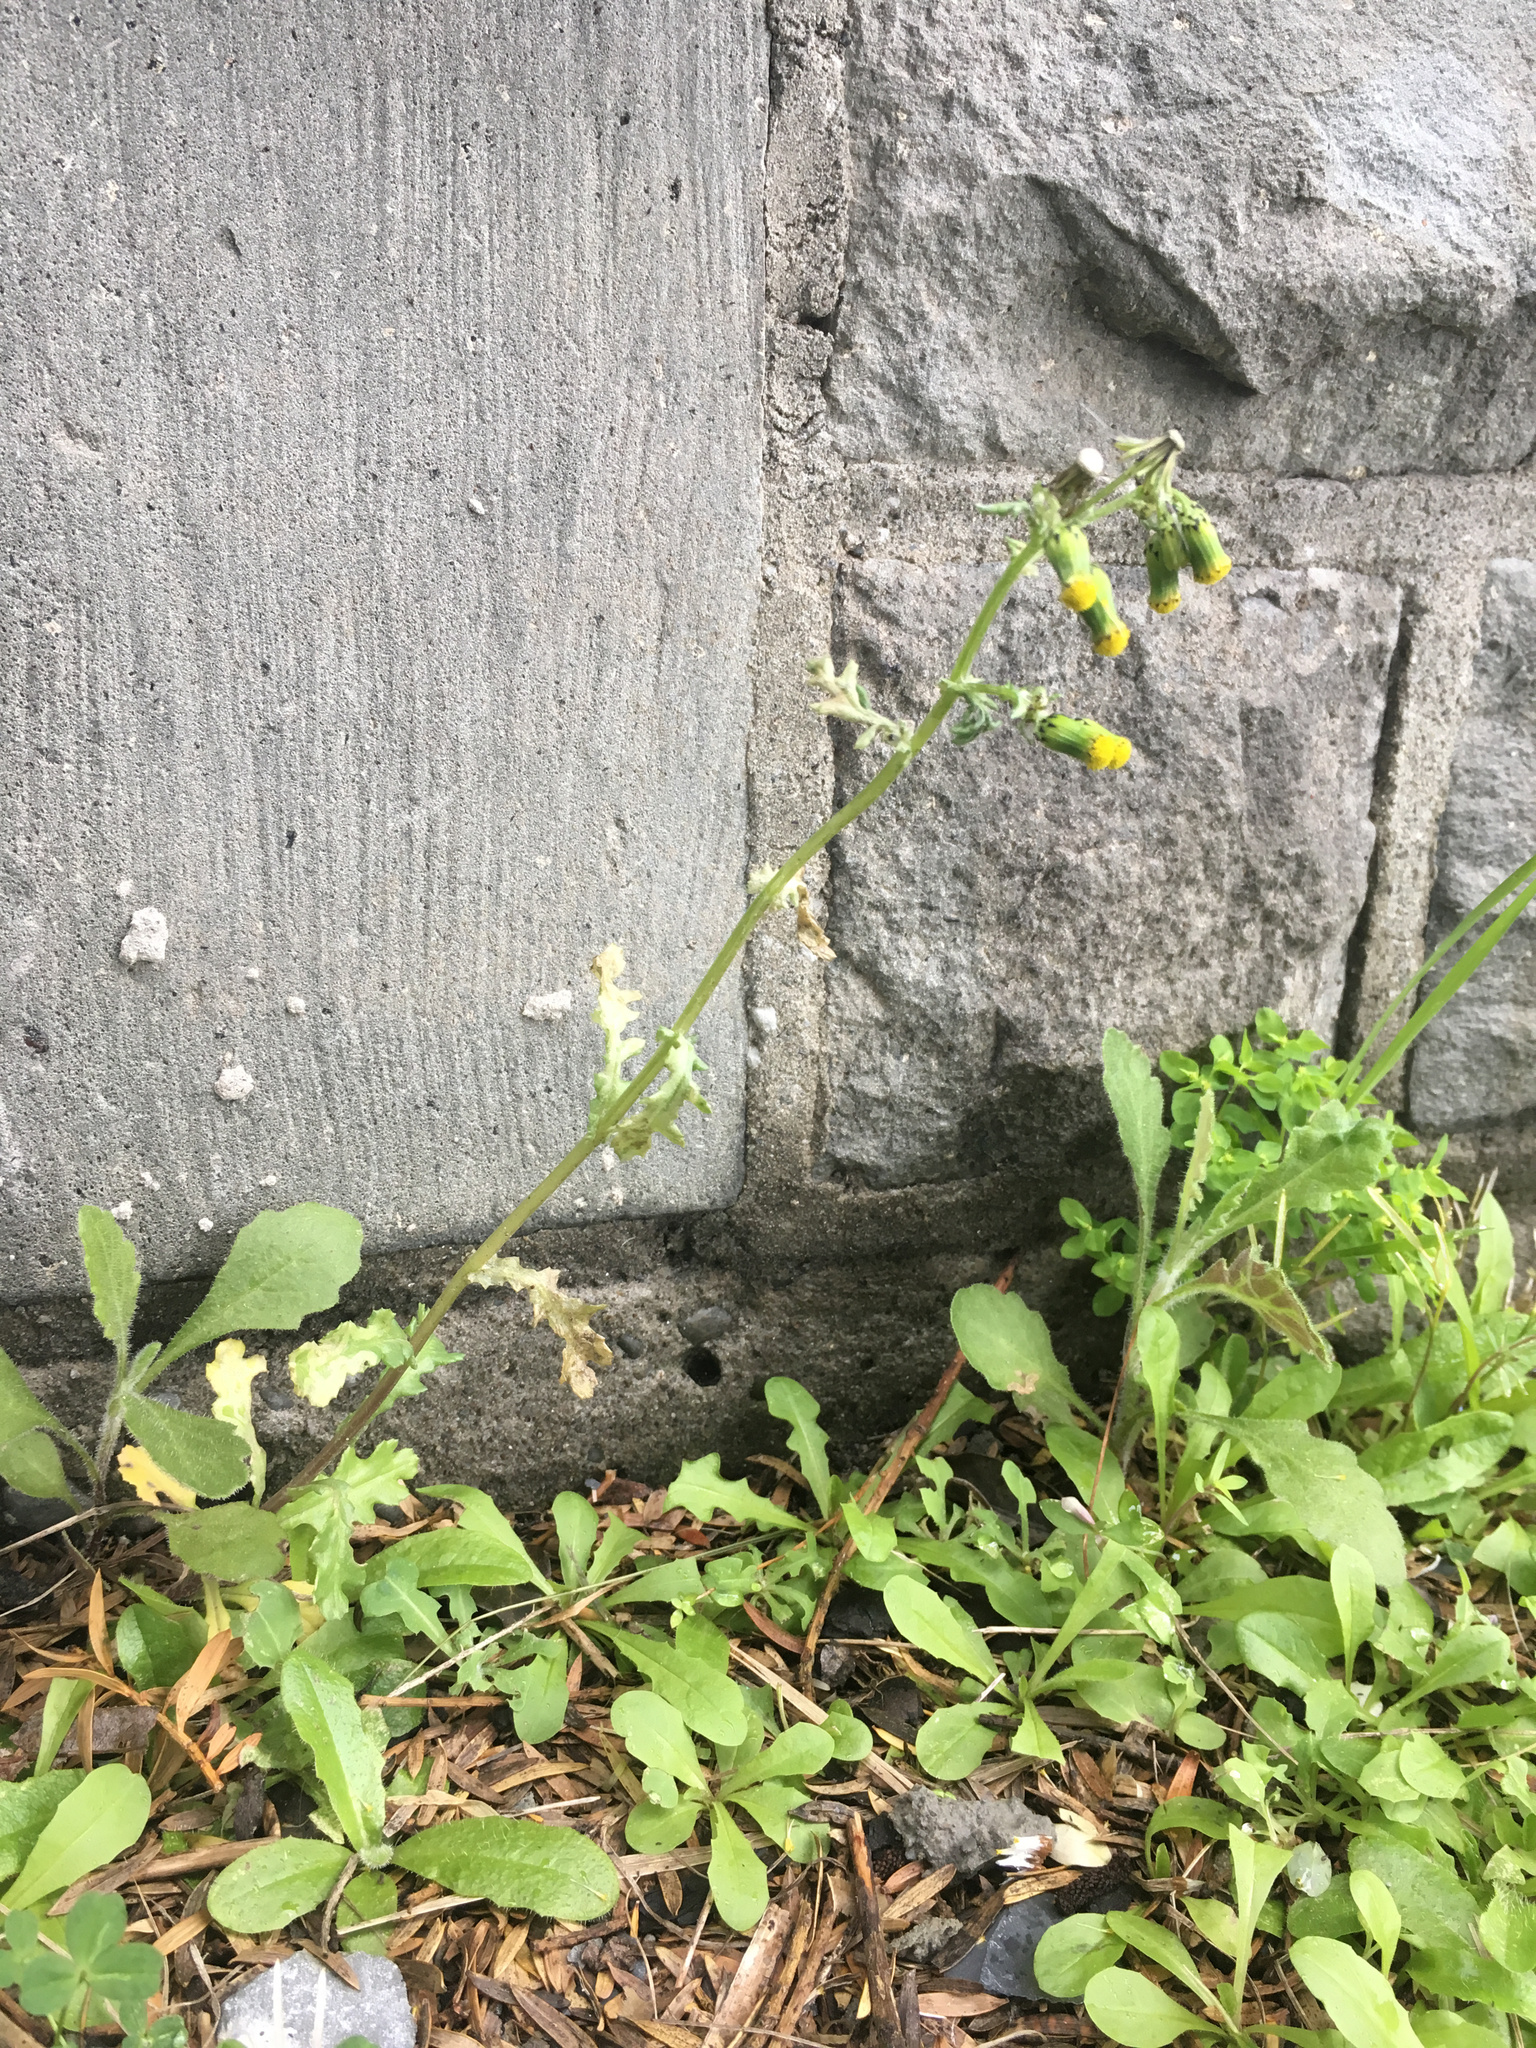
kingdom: Plantae
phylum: Tracheophyta
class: Magnoliopsida
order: Asterales
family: Asteraceae
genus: Senecio
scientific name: Senecio vulgaris
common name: Old-man-in-the-spring
